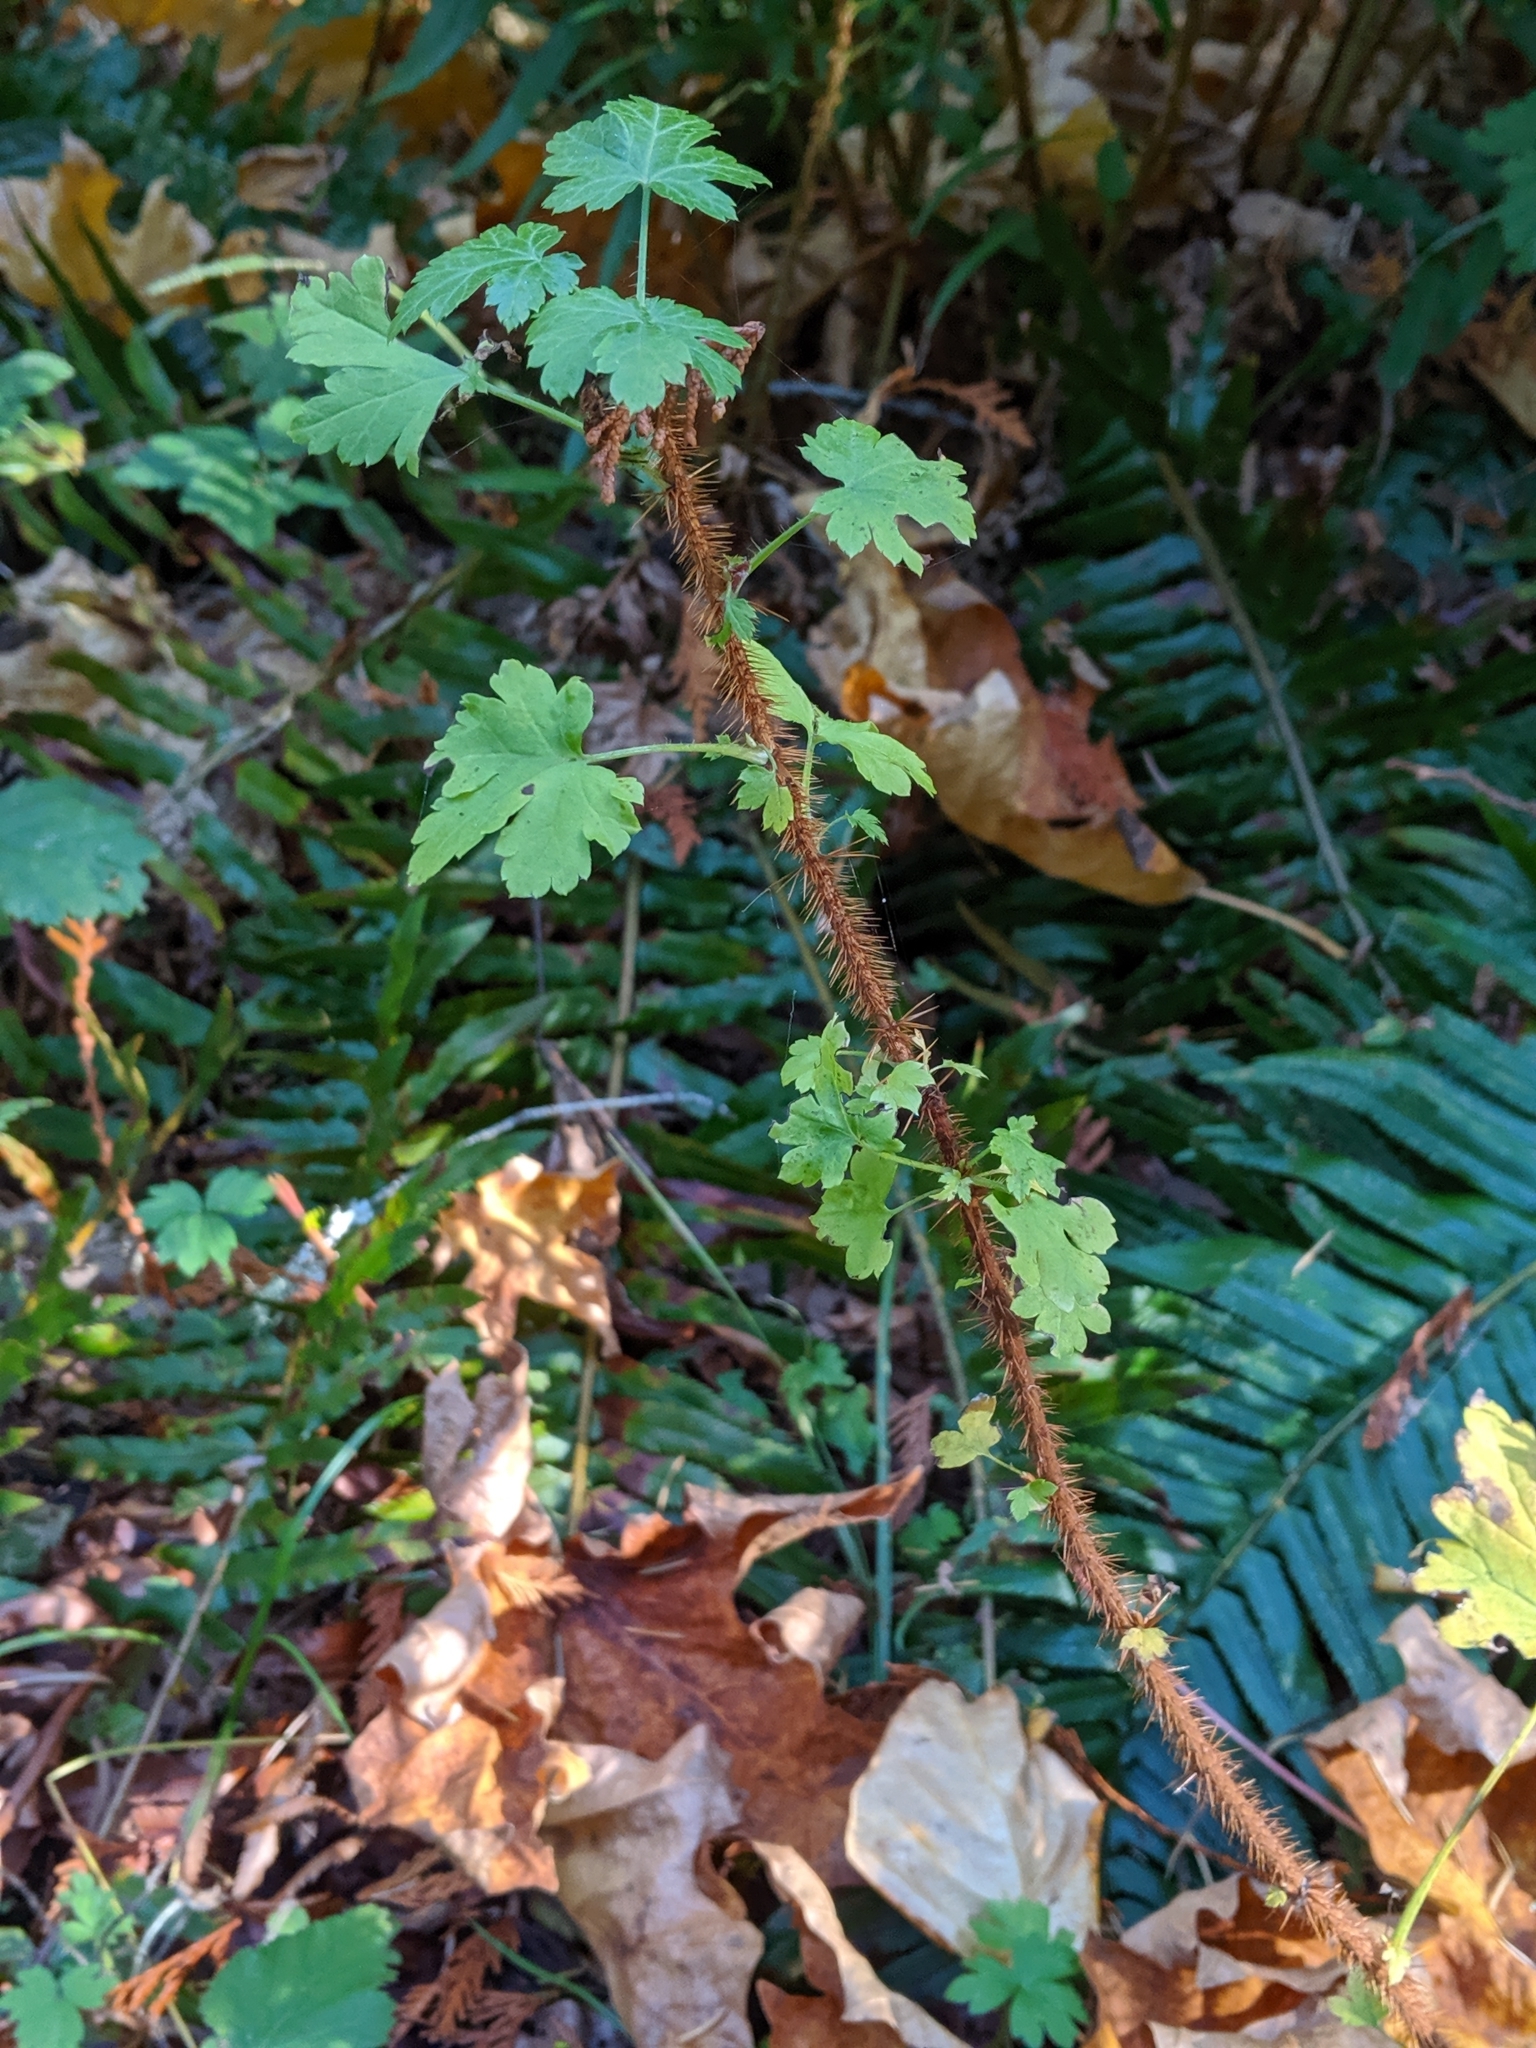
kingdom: Plantae
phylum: Tracheophyta
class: Magnoliopsida
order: Saxifragales
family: Grossulariaceae
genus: Ribes
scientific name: Ribes lacustre
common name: Black gooseberry
